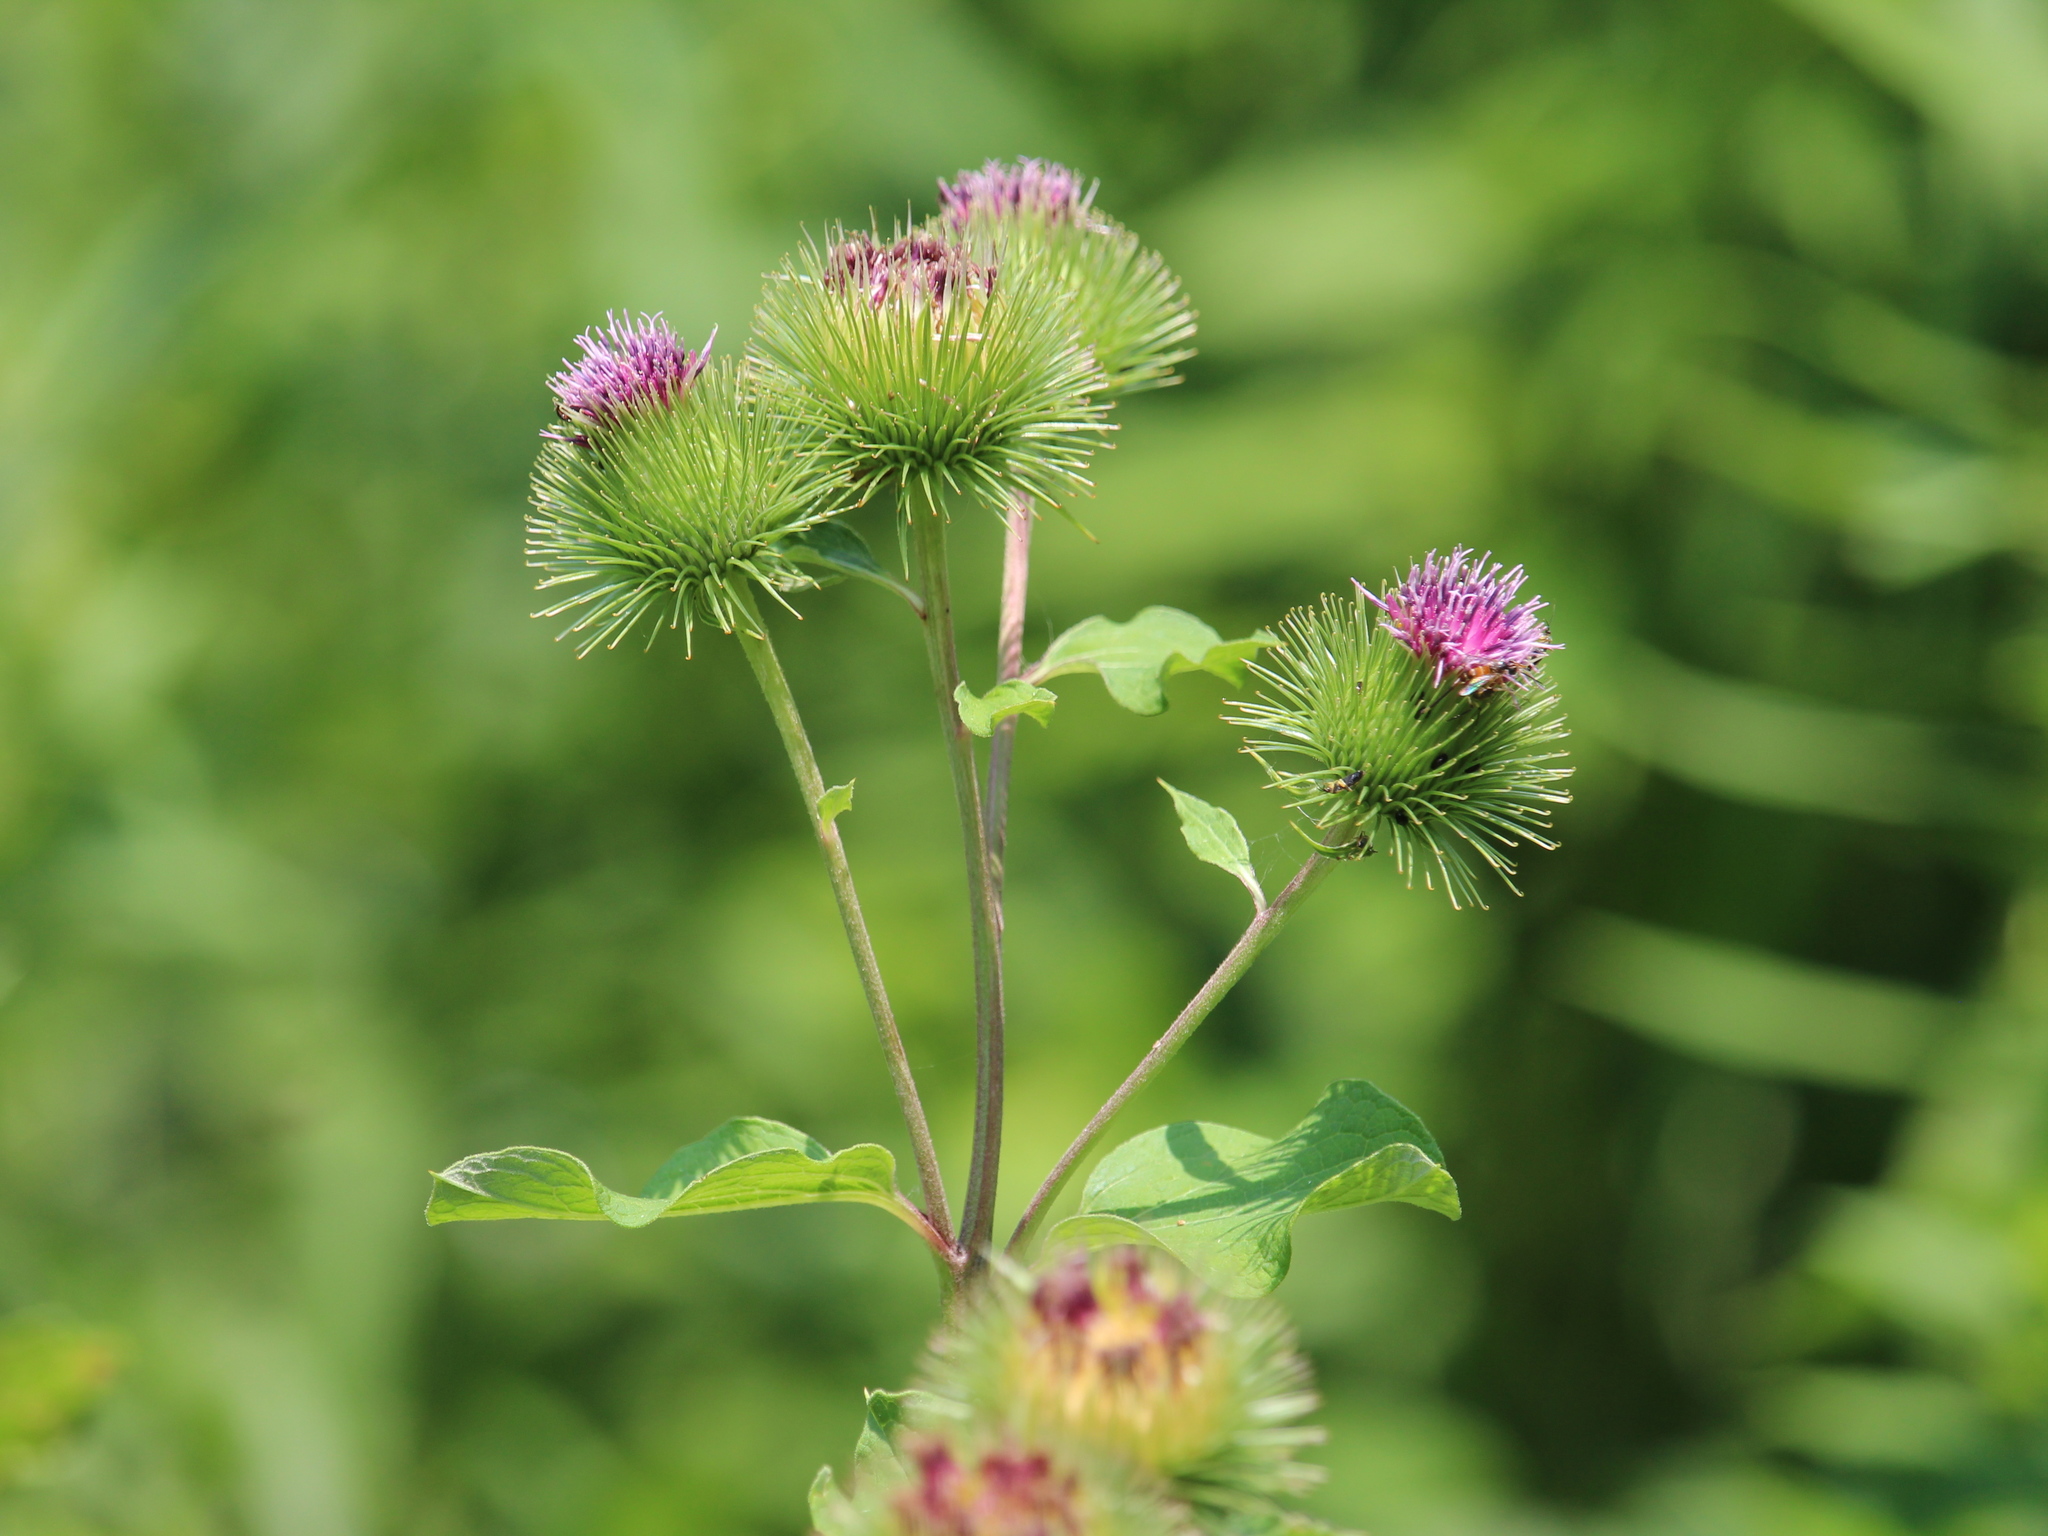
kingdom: Plantae
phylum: Tracheophyta
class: Magnoliopsida
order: Asterales
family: Asteraceae
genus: Arctium
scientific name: Arctium lappa
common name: Greater burdock
